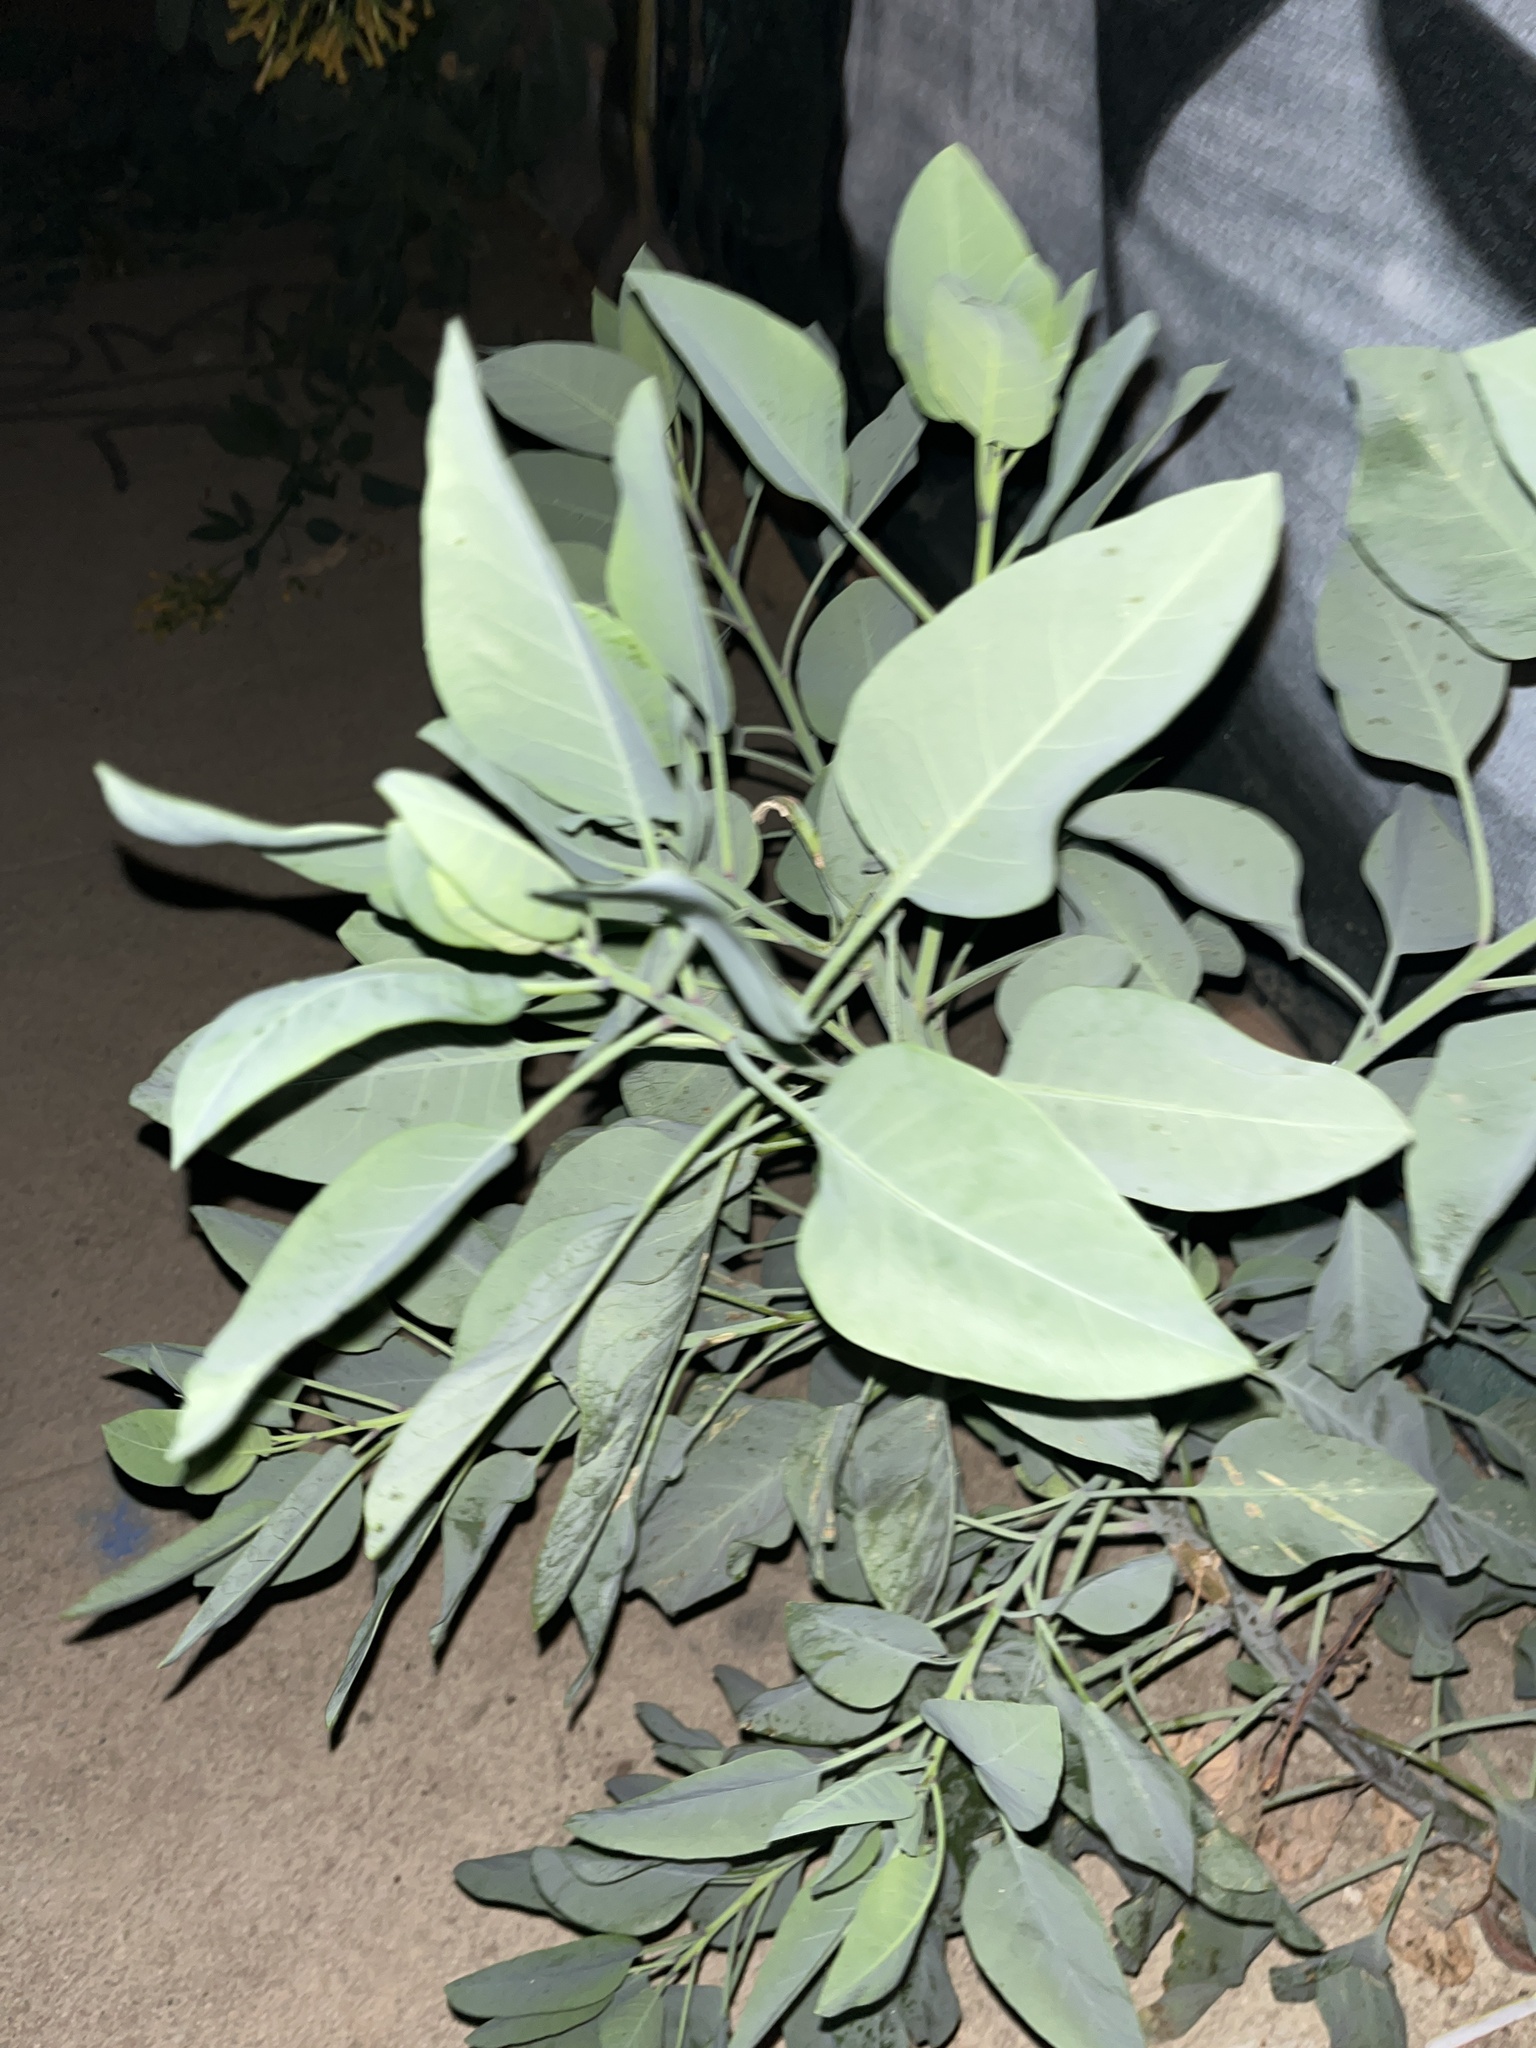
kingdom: Plantae
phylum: Tracheophyta
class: Magnoliopsida
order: Solanales
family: Solanaceae
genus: Nicotiana
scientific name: Nicotiana glauca
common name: Tree tobacco
